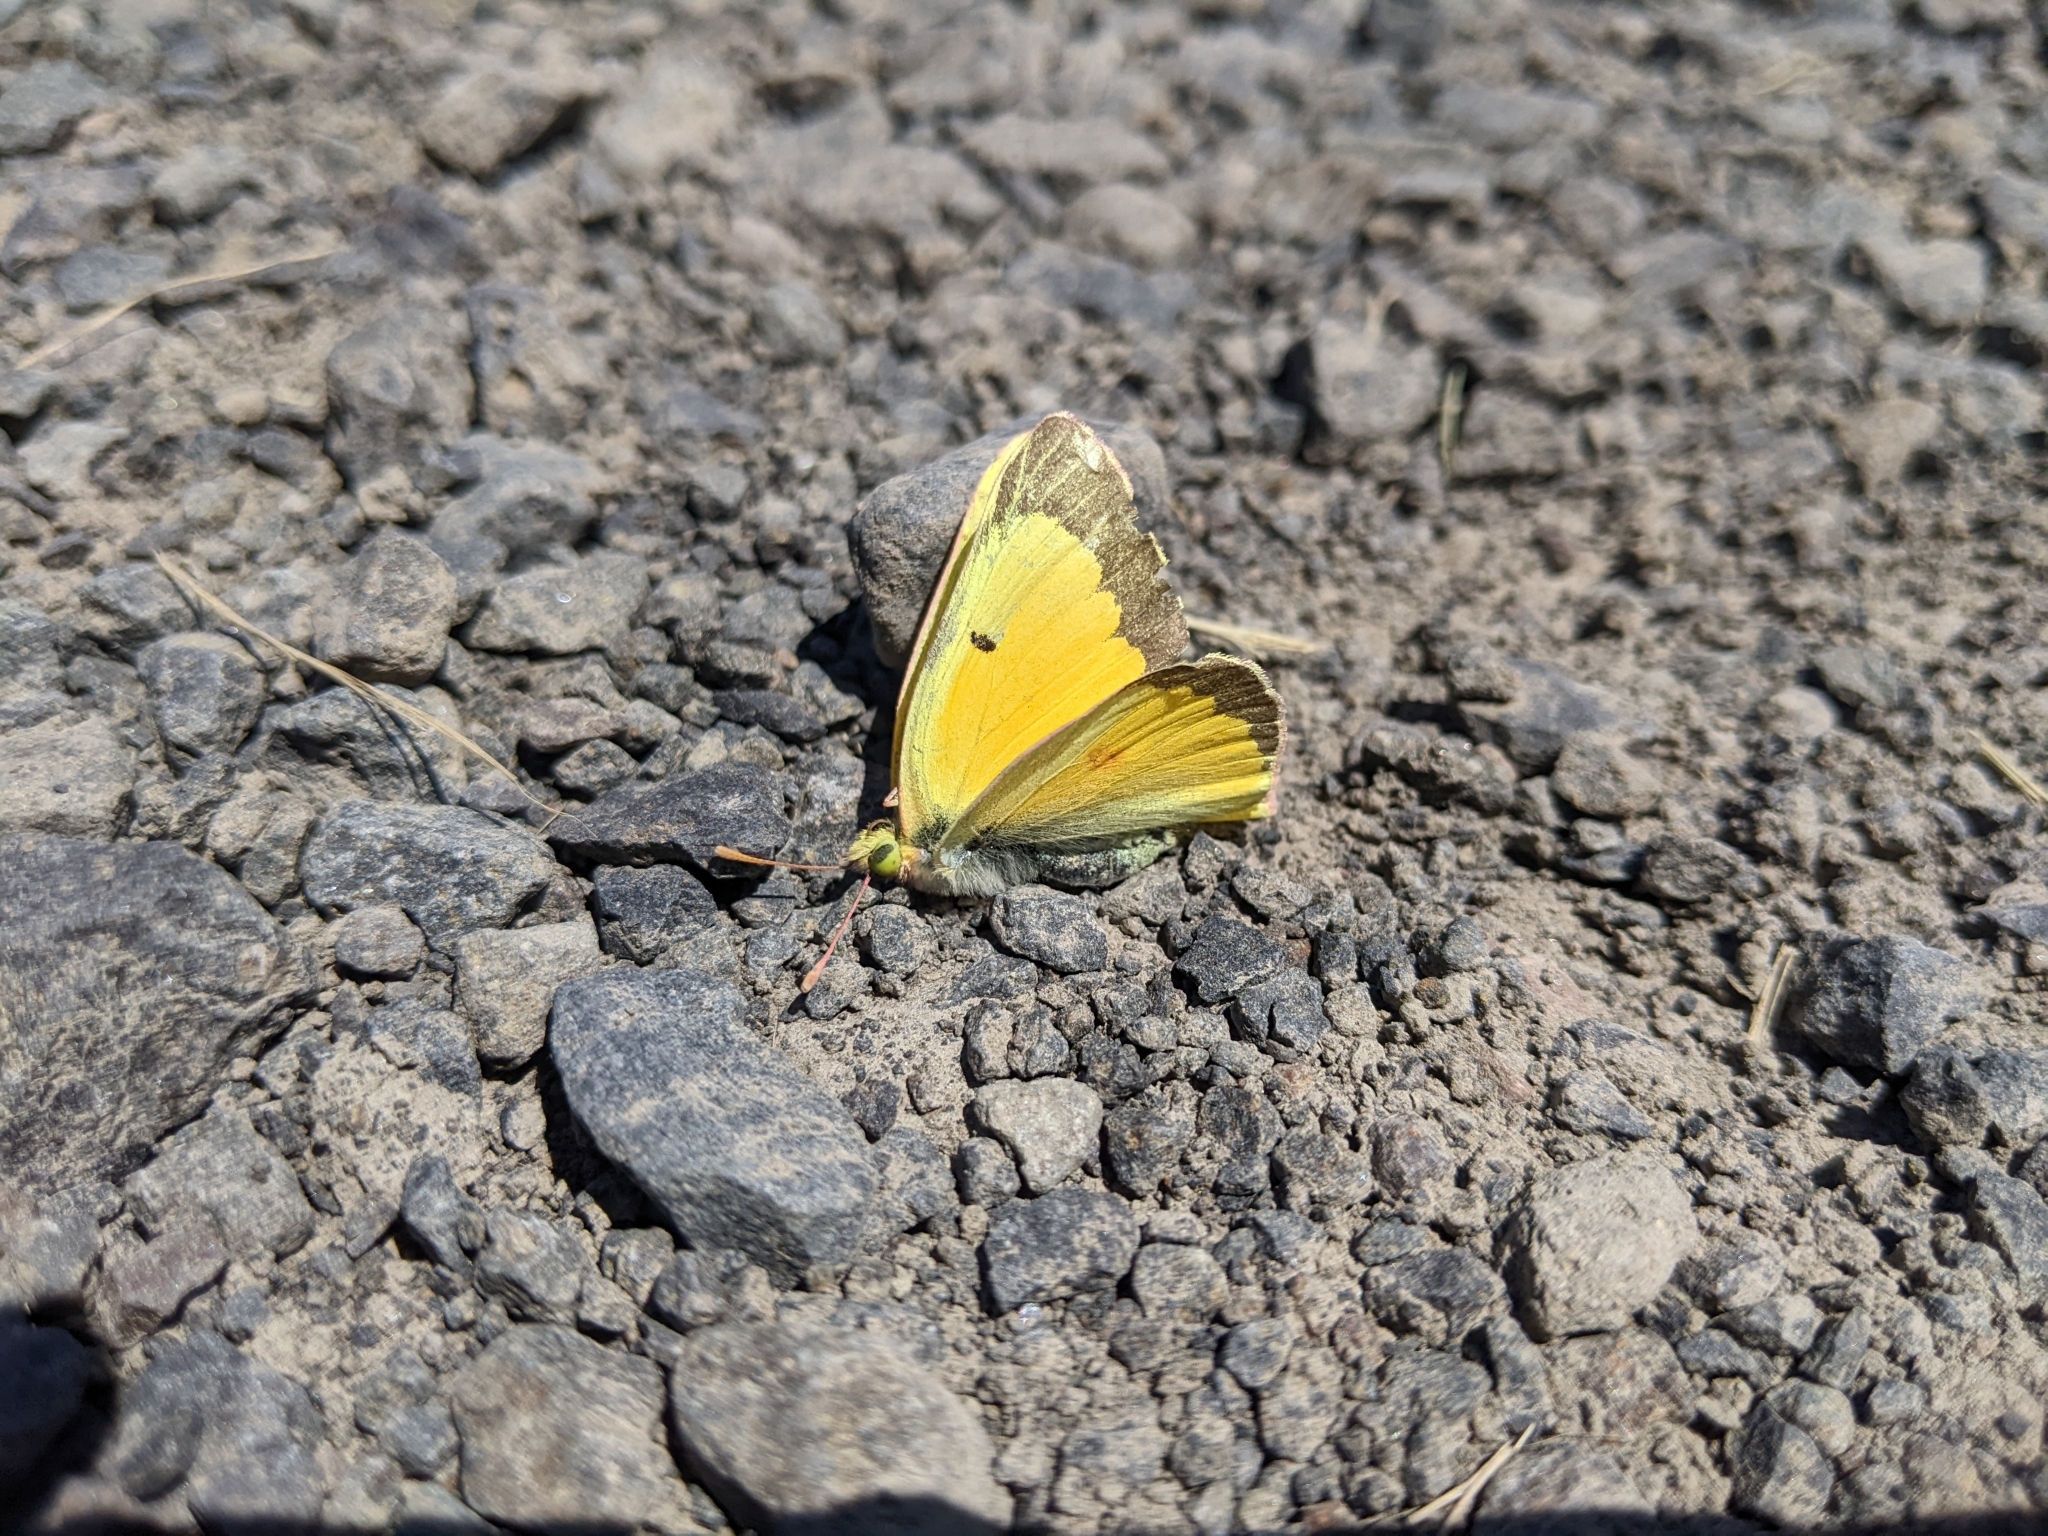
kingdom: Animalia
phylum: Arthropoda
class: Insecta
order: Lepidoptera
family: Pieridae
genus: Colias
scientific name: Colias eurytheme
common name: Alfalfa butterfly
